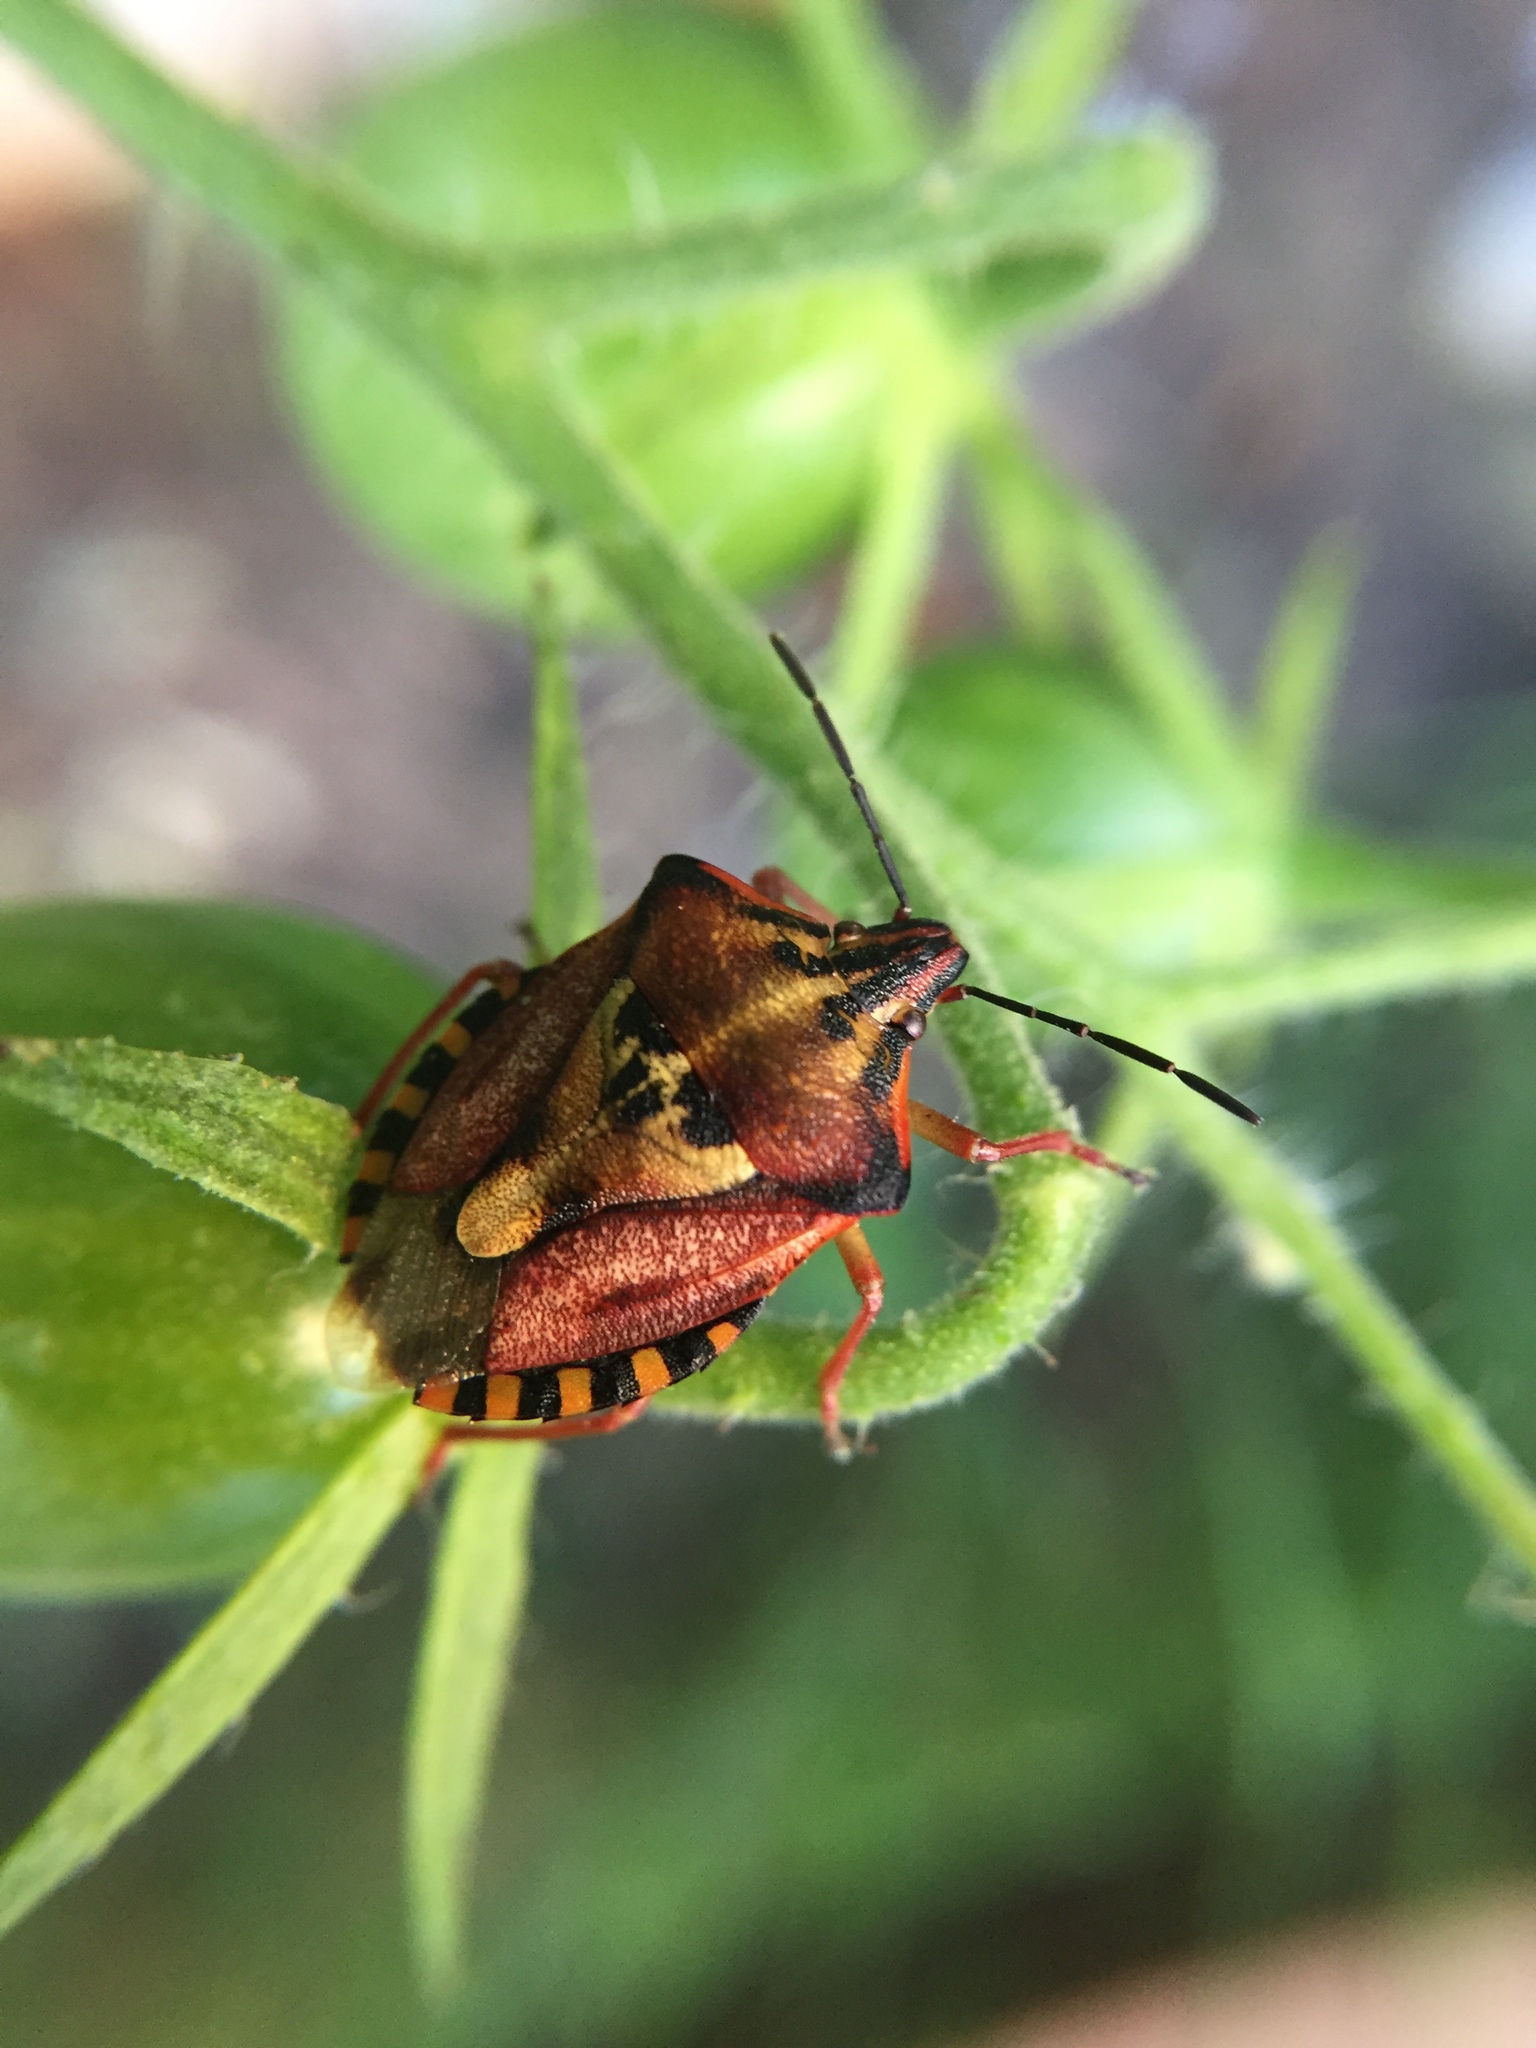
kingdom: Animalia
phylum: Arthropoda
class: Insecta
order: Hemiptera
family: Pentatomidae
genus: Carpocoris
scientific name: Carpocoris mediterraneus
